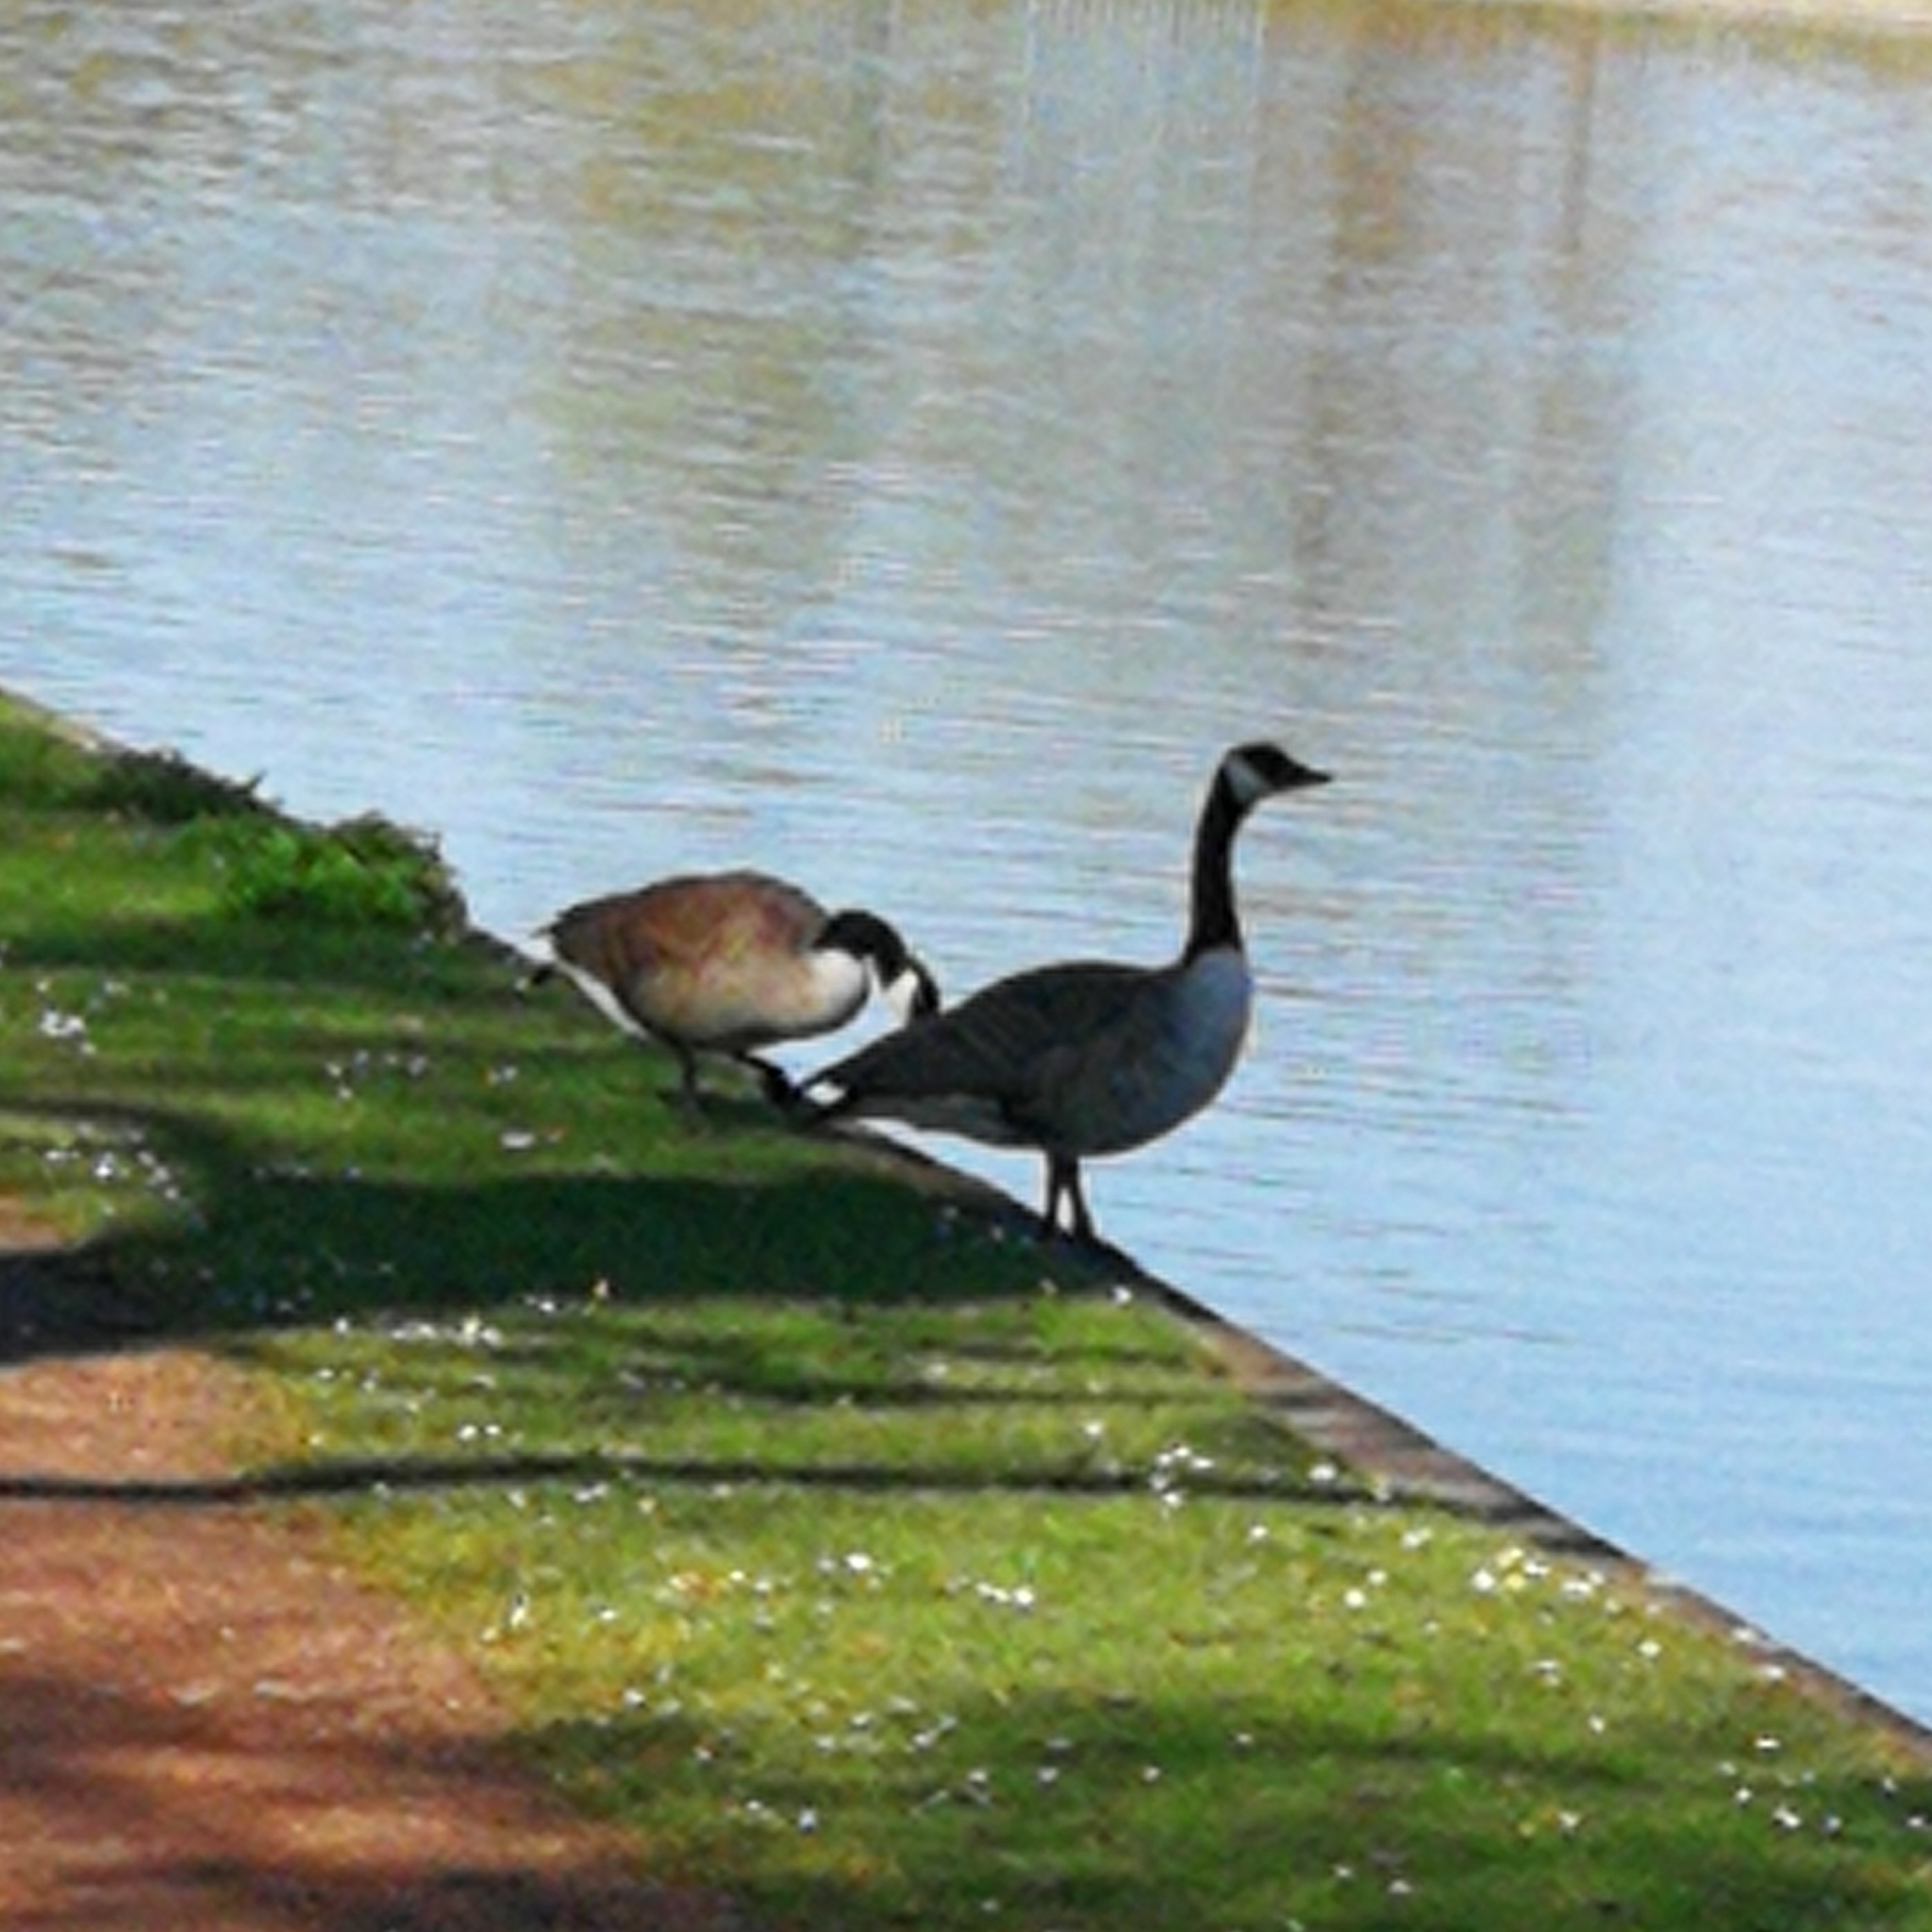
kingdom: Animalia
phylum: Chordata
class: Aves
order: Anseriformes
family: Anatidae
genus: Branta
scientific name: Branta canadensis
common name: Canada goose
